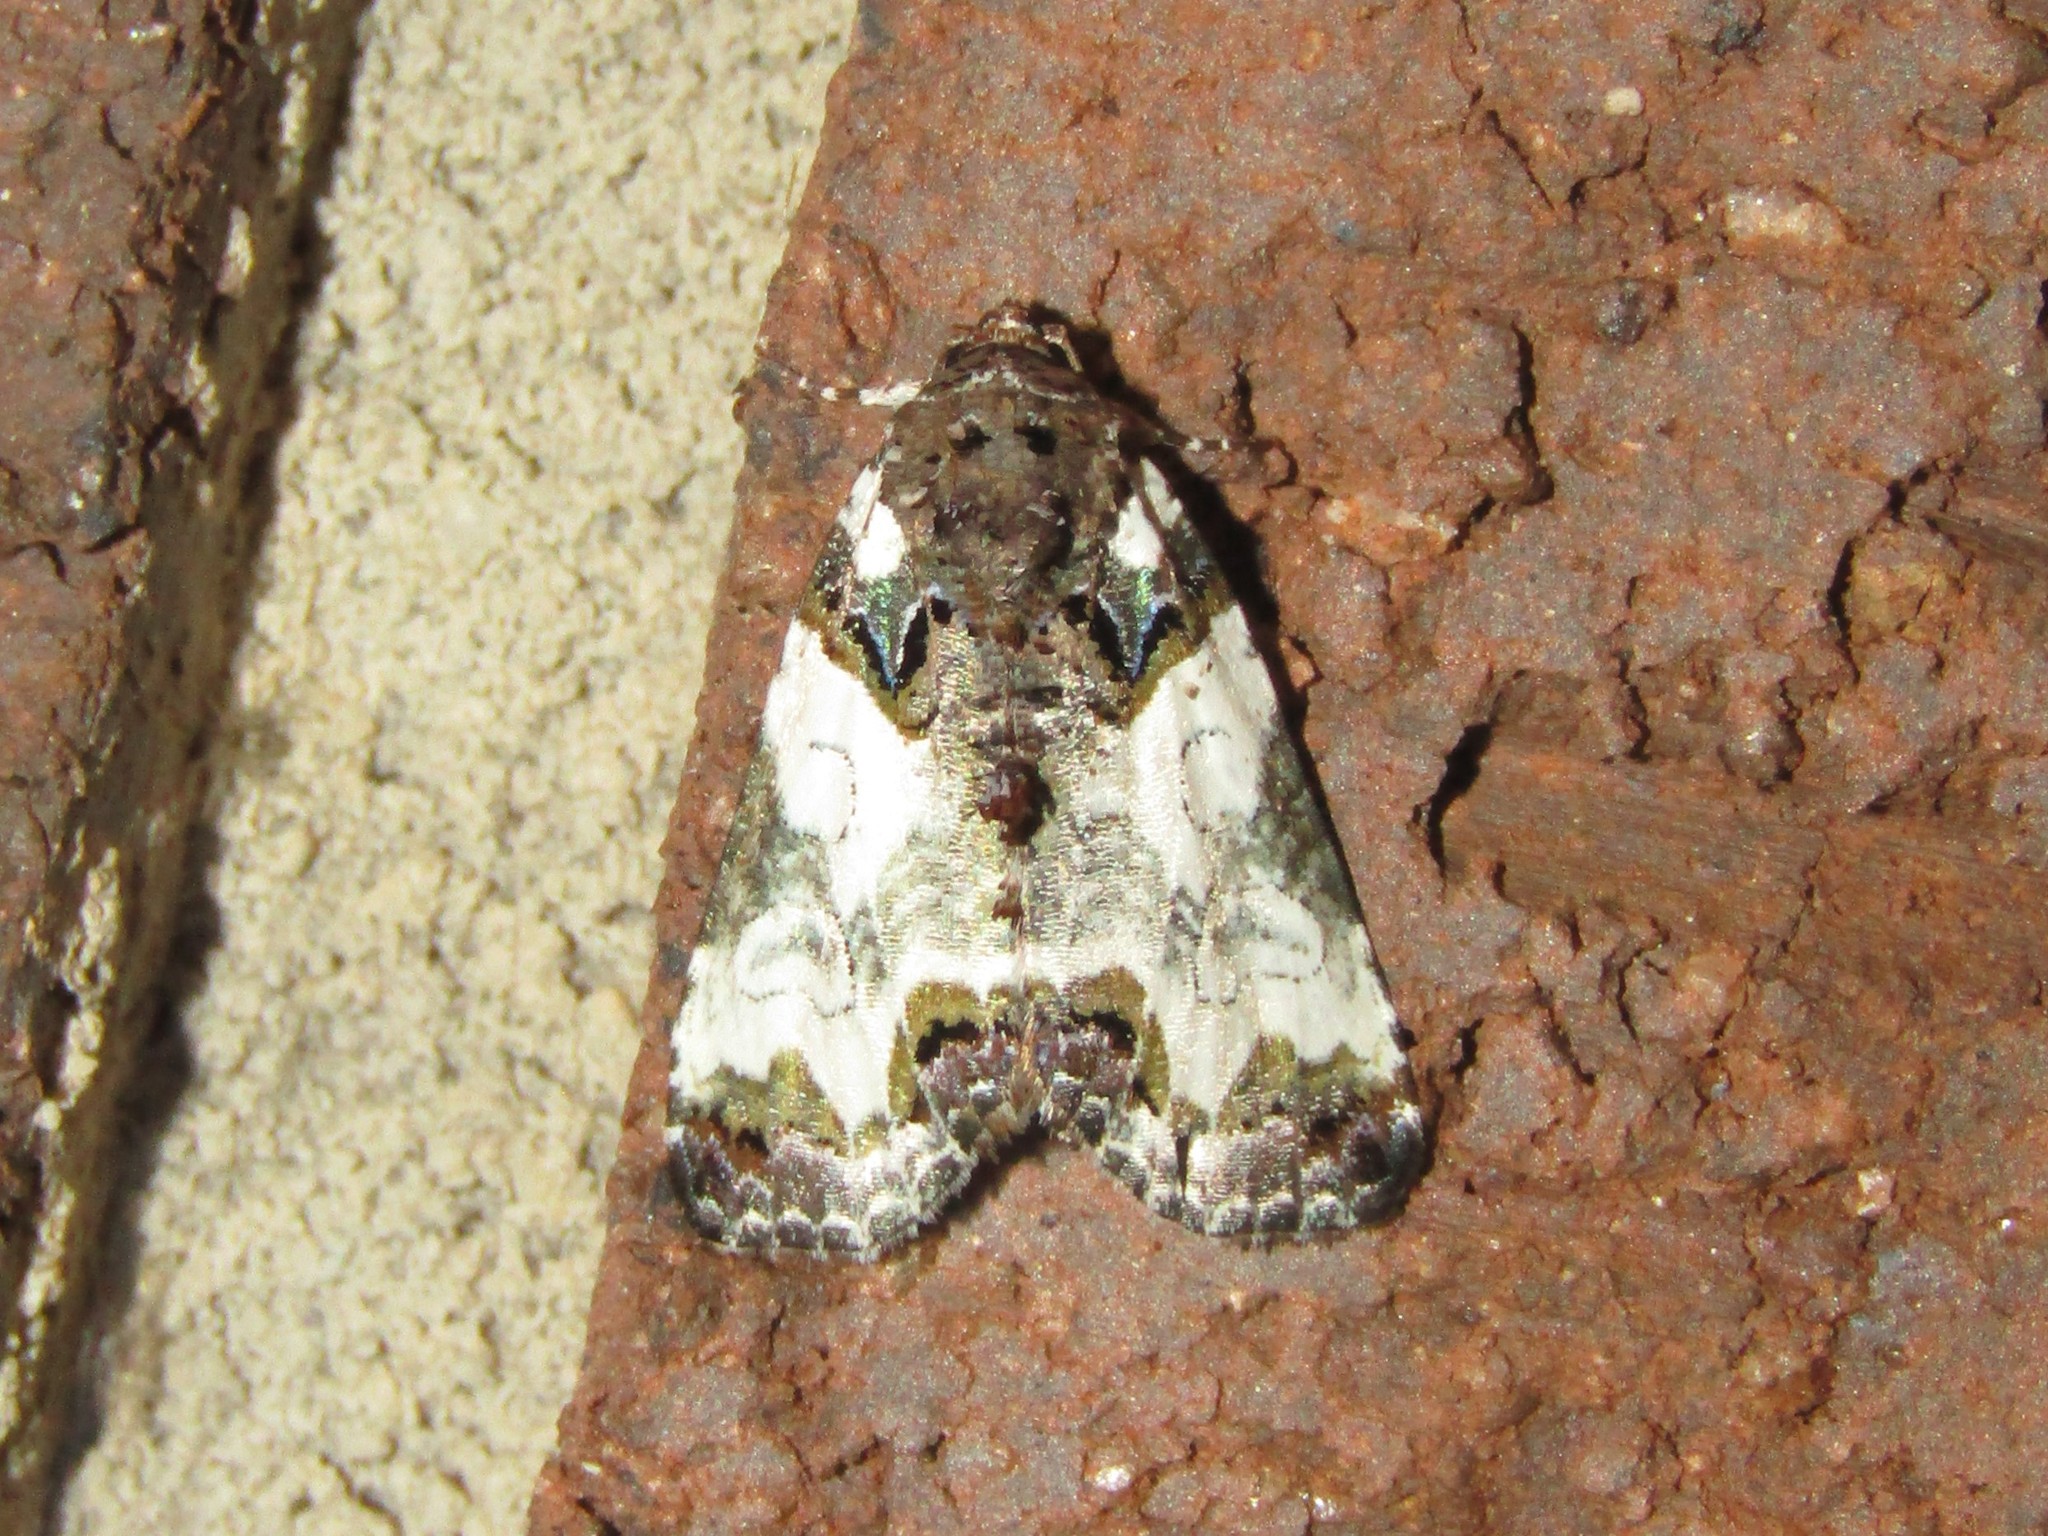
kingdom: Animalia
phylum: Arthropoda
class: Insecta
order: Lepidoptera
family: Noctuidae
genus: Cerma
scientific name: Cerma cerintha
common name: Tufted bird-dropping moth
